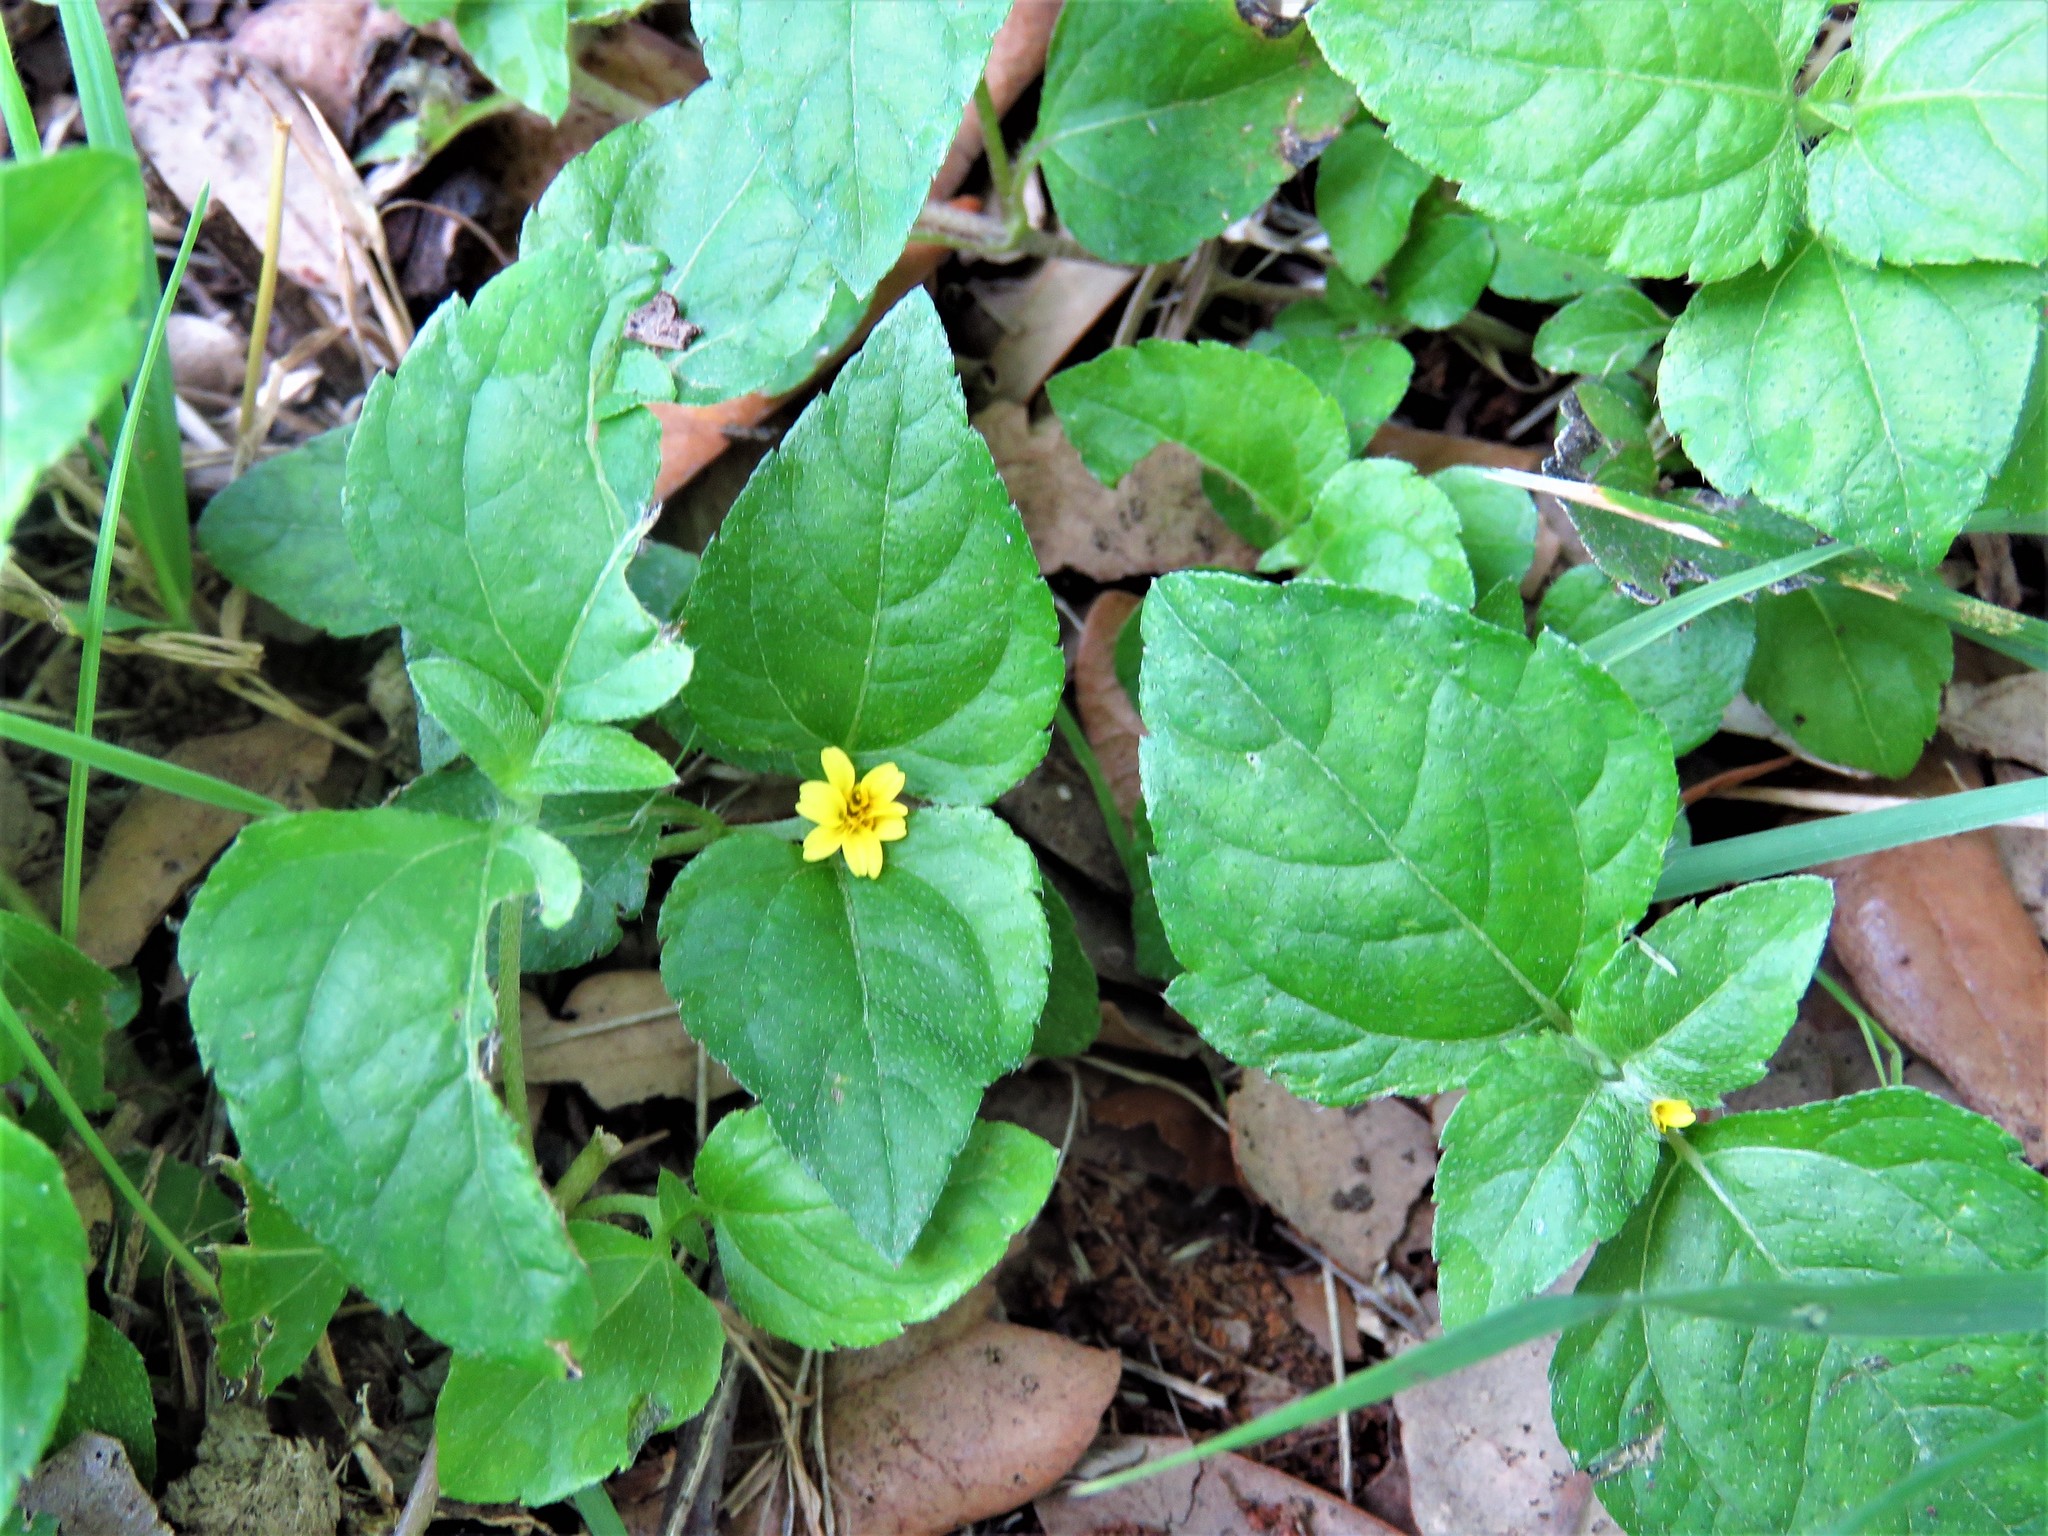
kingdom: Plantae
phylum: Tracheophyta
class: Magnoliopsida
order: Asterales
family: Asteraceae
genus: Calyptocarpus
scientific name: Calyptocarpus vialis
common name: Straggler daisy
